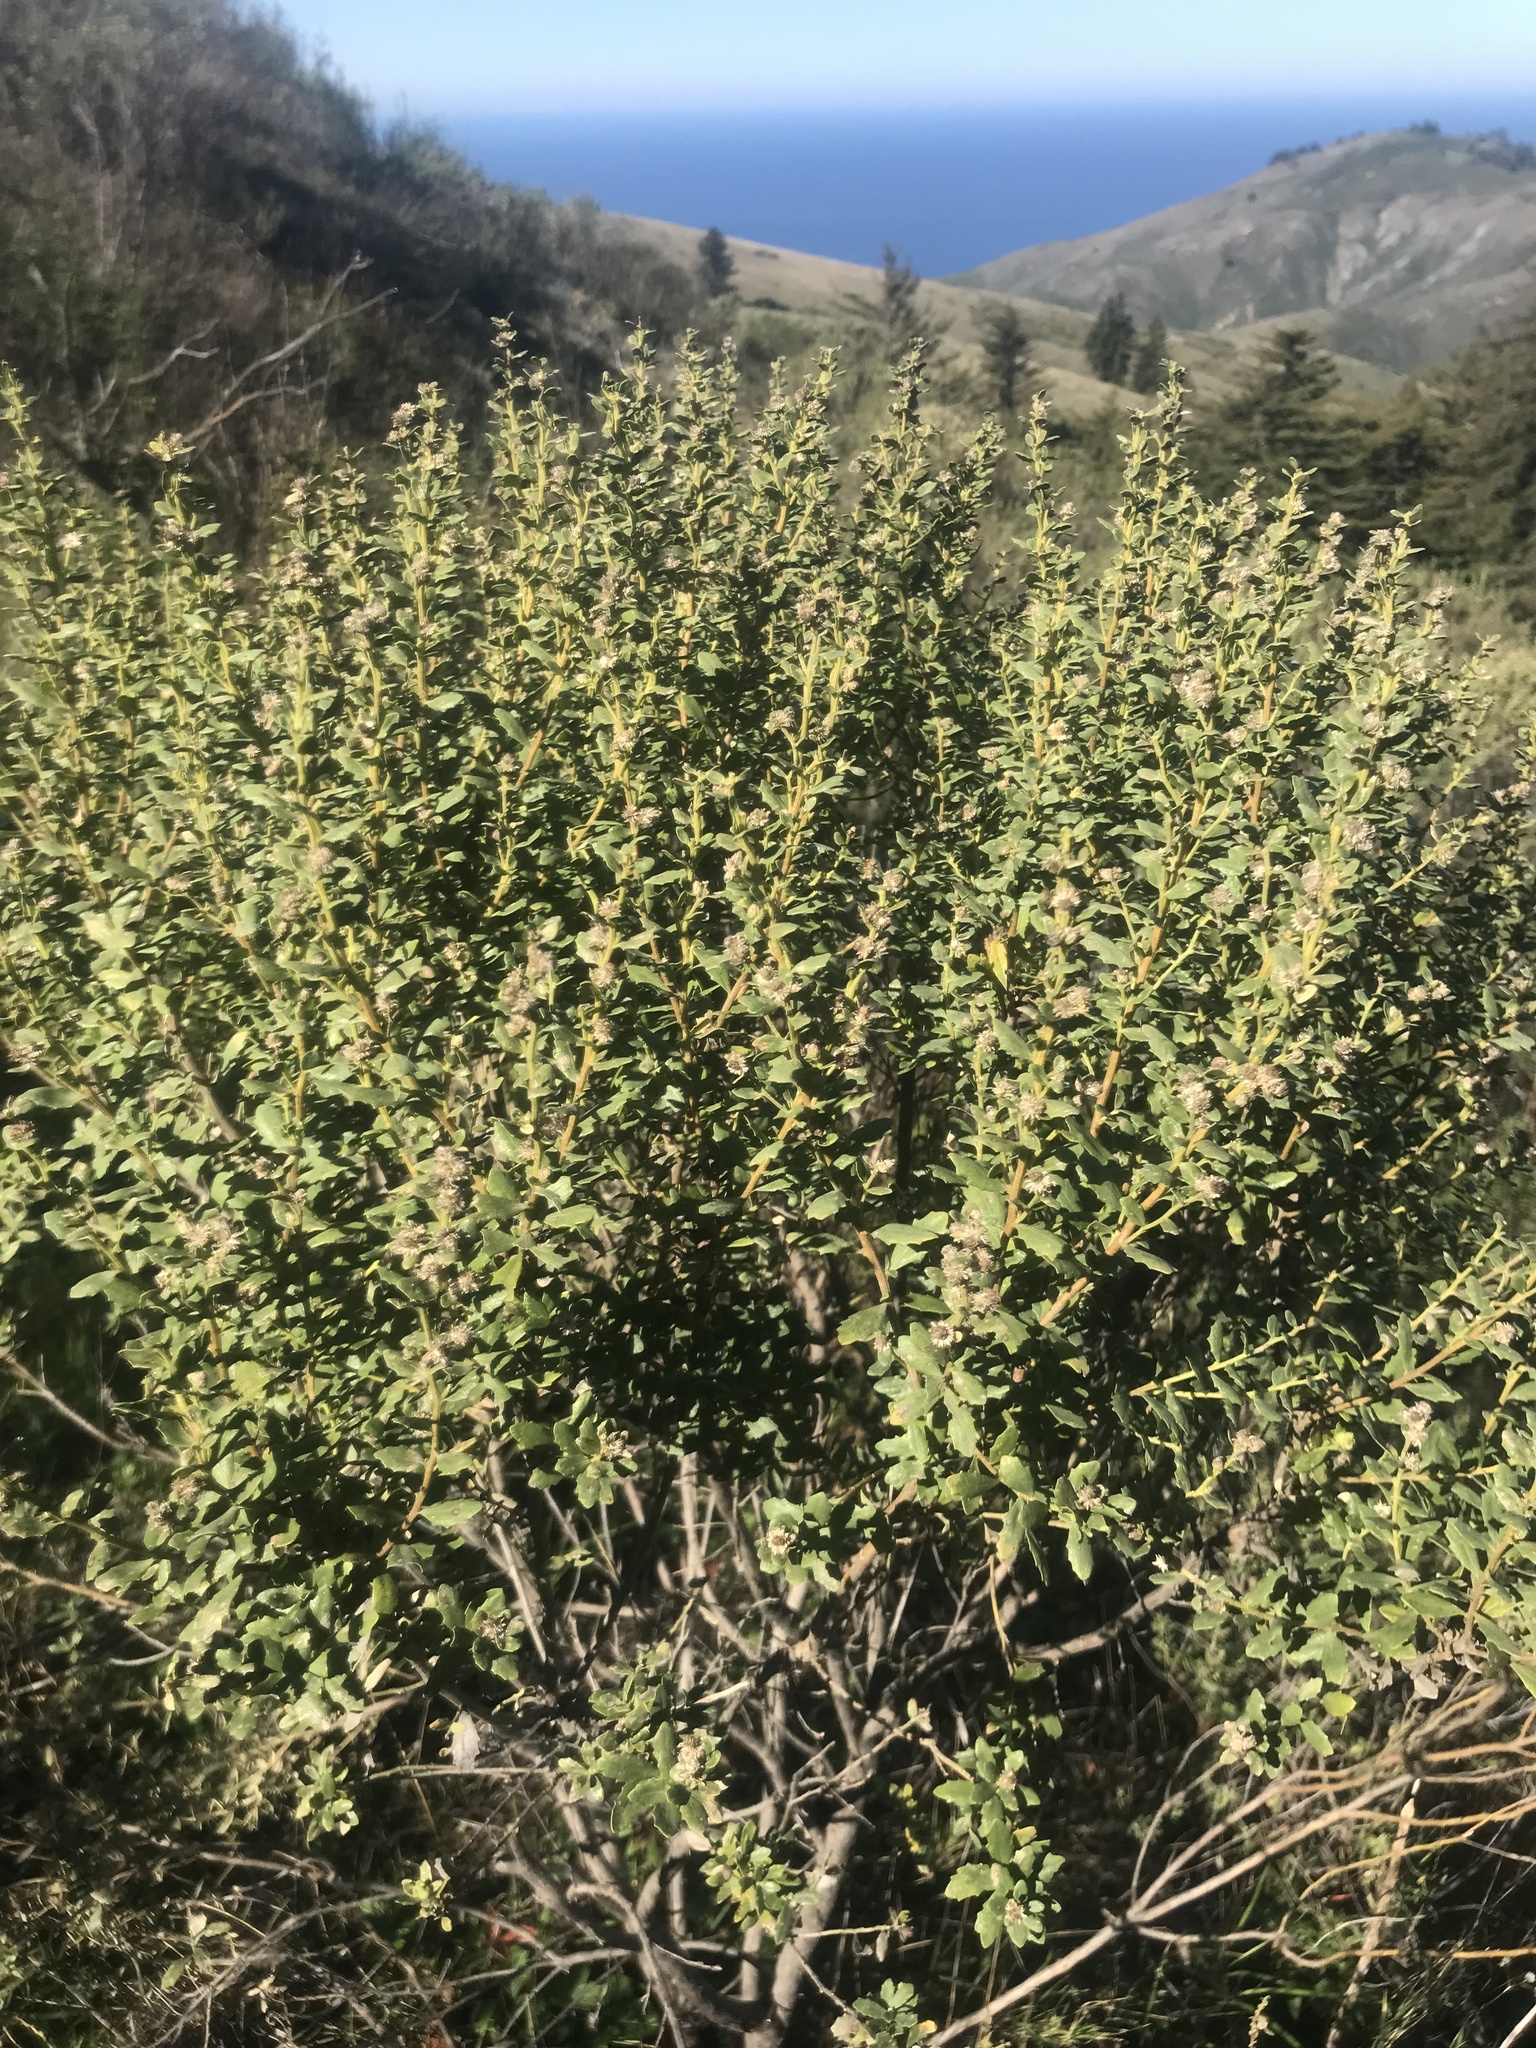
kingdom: Plantae
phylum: Tracheophyta
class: Magnoliopsida
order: Asterales
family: Asteraceae
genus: Baccharis
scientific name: Baccharis pilularis
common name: Coyotebrush
